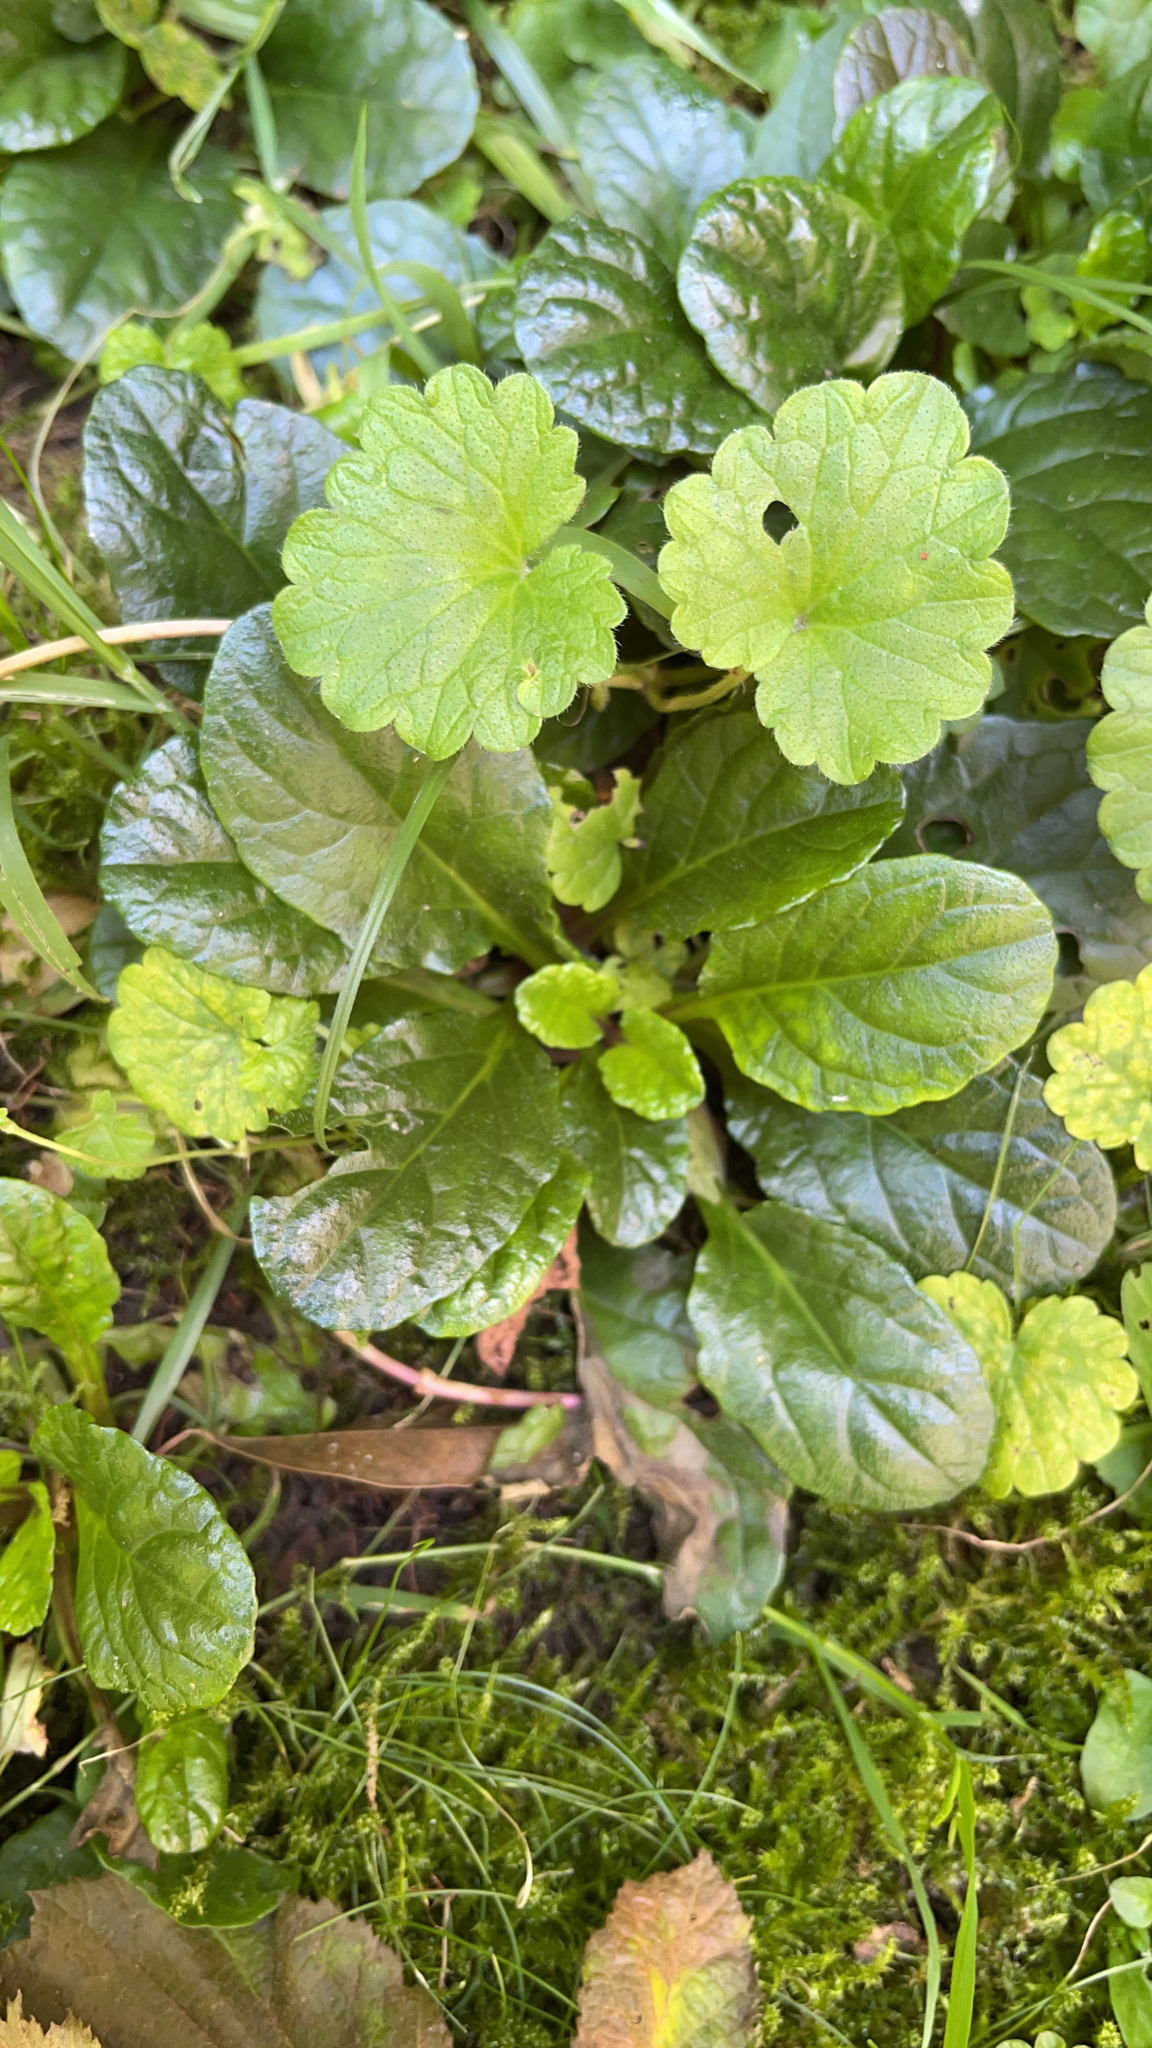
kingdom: Plantae
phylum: Tracheophyta
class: Magnoliopsida
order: Lamiales
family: Lamiaceae
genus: Ajuga
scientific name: Ajuga reptans
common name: Bugle
